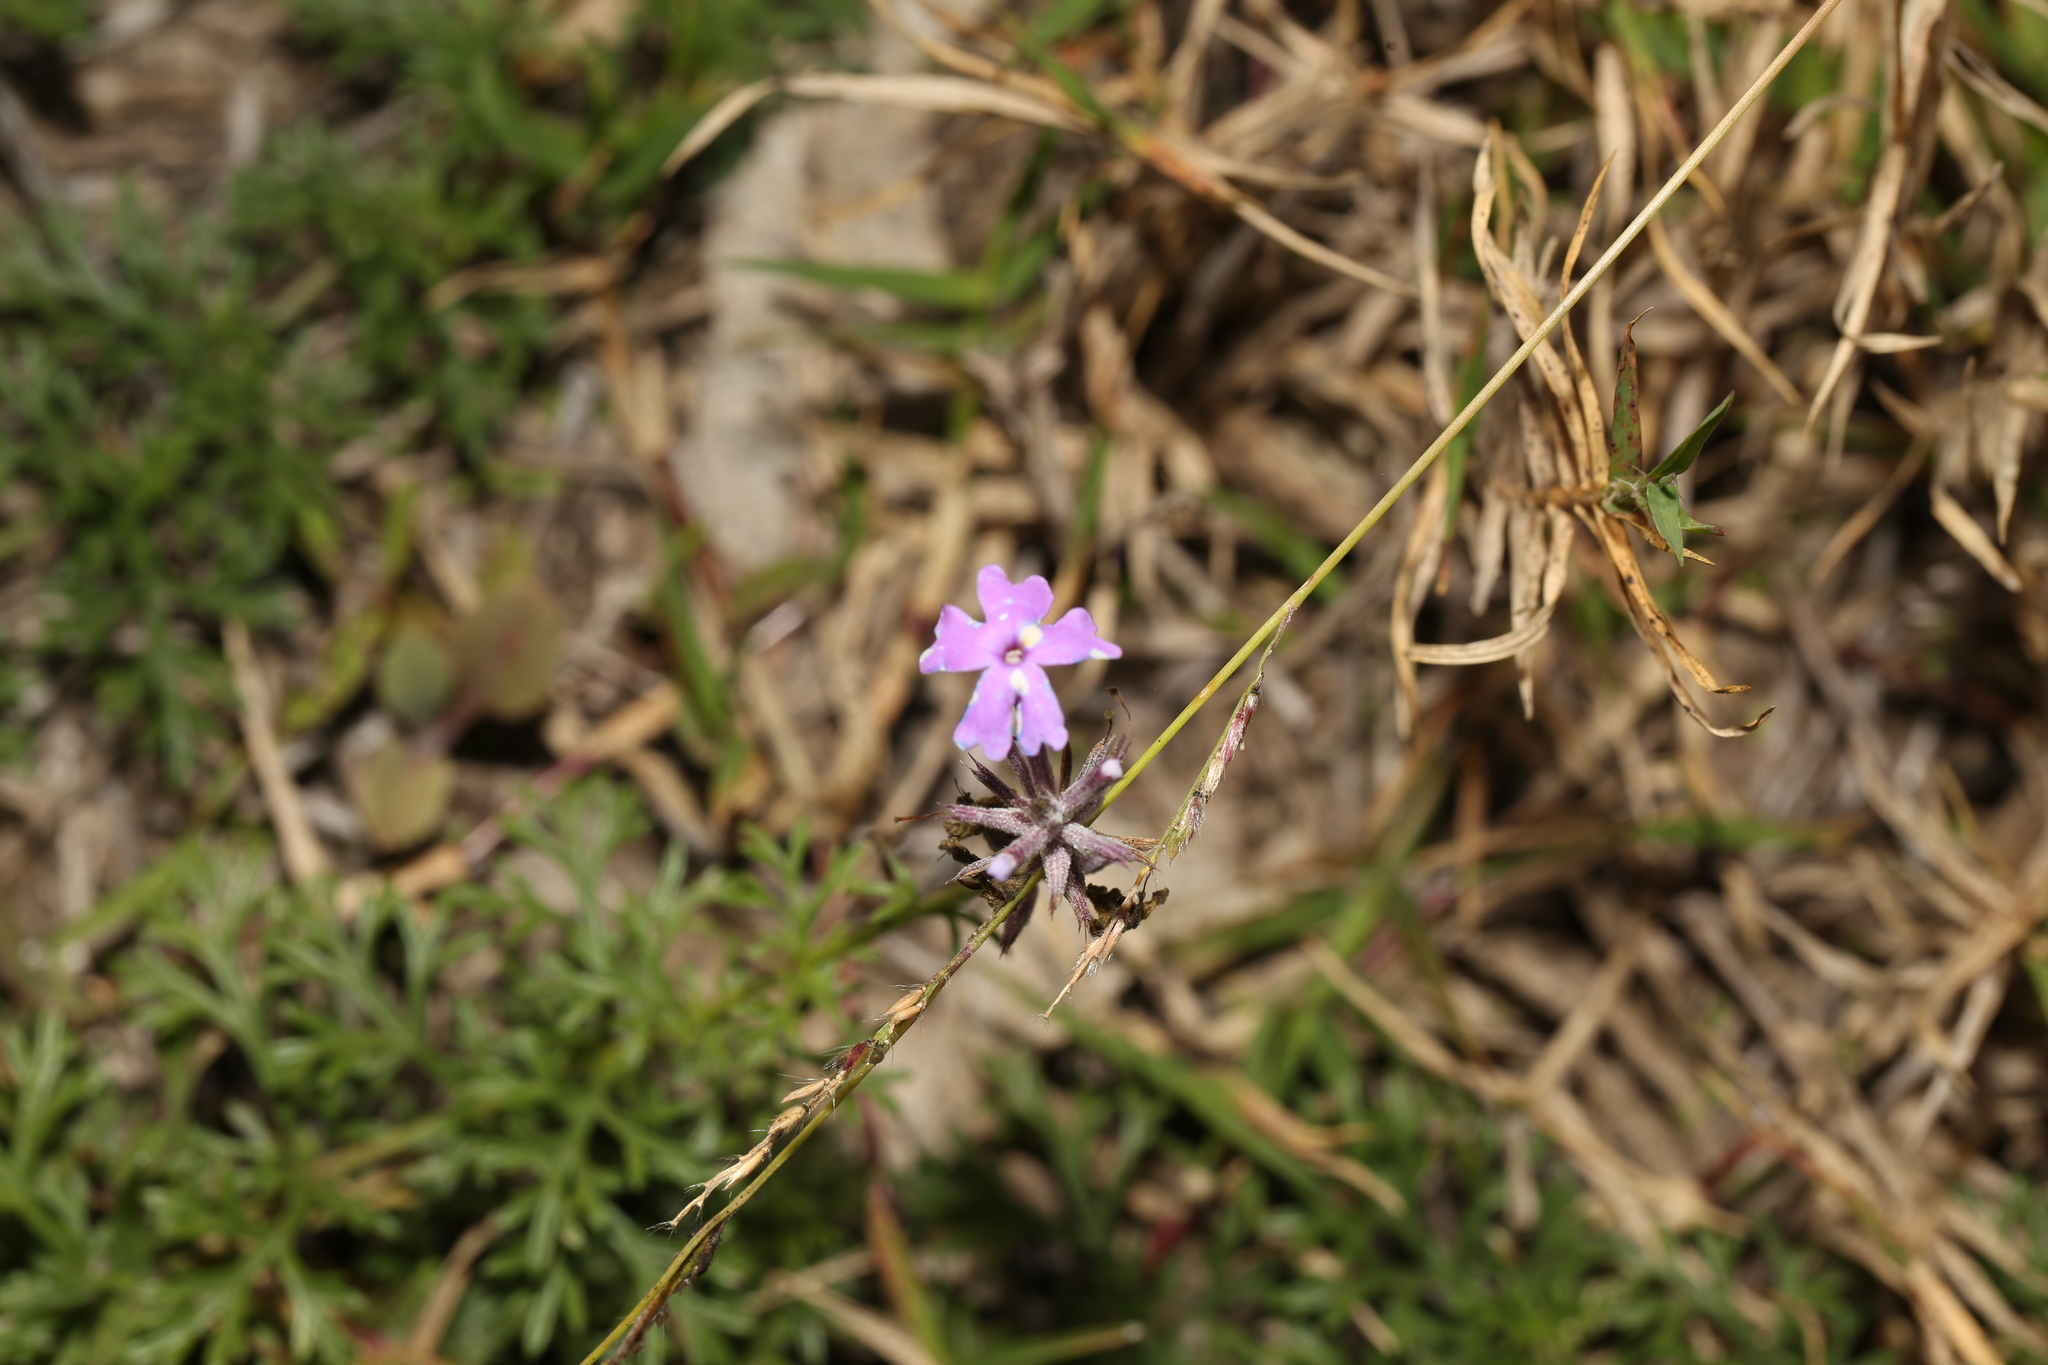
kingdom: Plantae
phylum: Tracheophyta
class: Magnoliopsida
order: Lamiales
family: Verbenaceae
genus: Verbena
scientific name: Verbena aristigera
